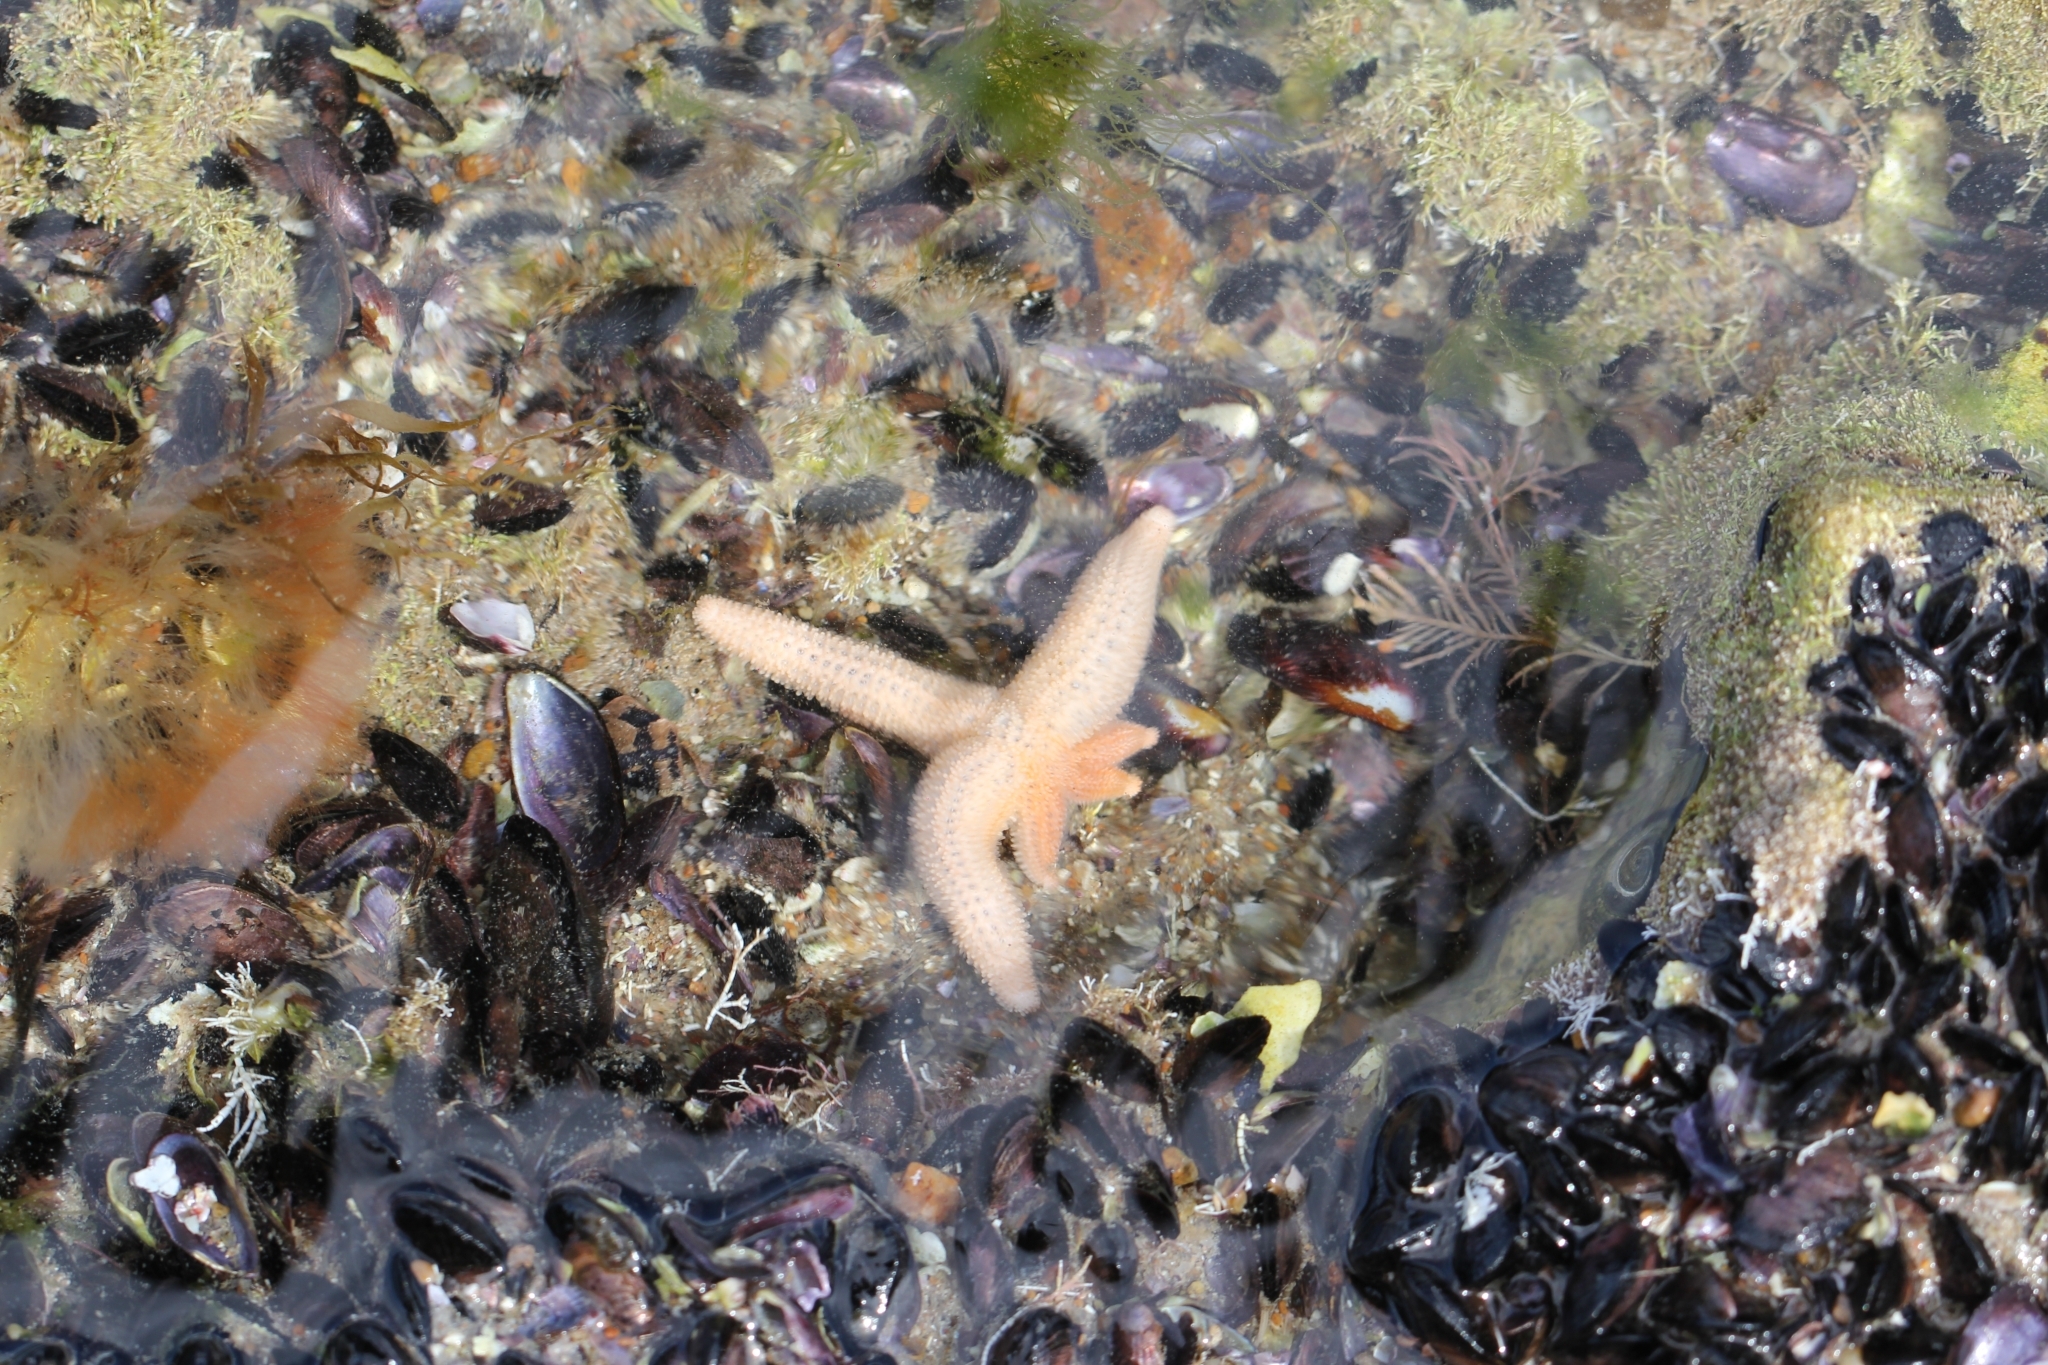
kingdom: Animalia
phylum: Echinodermata
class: Asteroidea
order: Forcipulatida
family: Stichasteridae
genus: Allostichaster
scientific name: Allostichaster capensis
